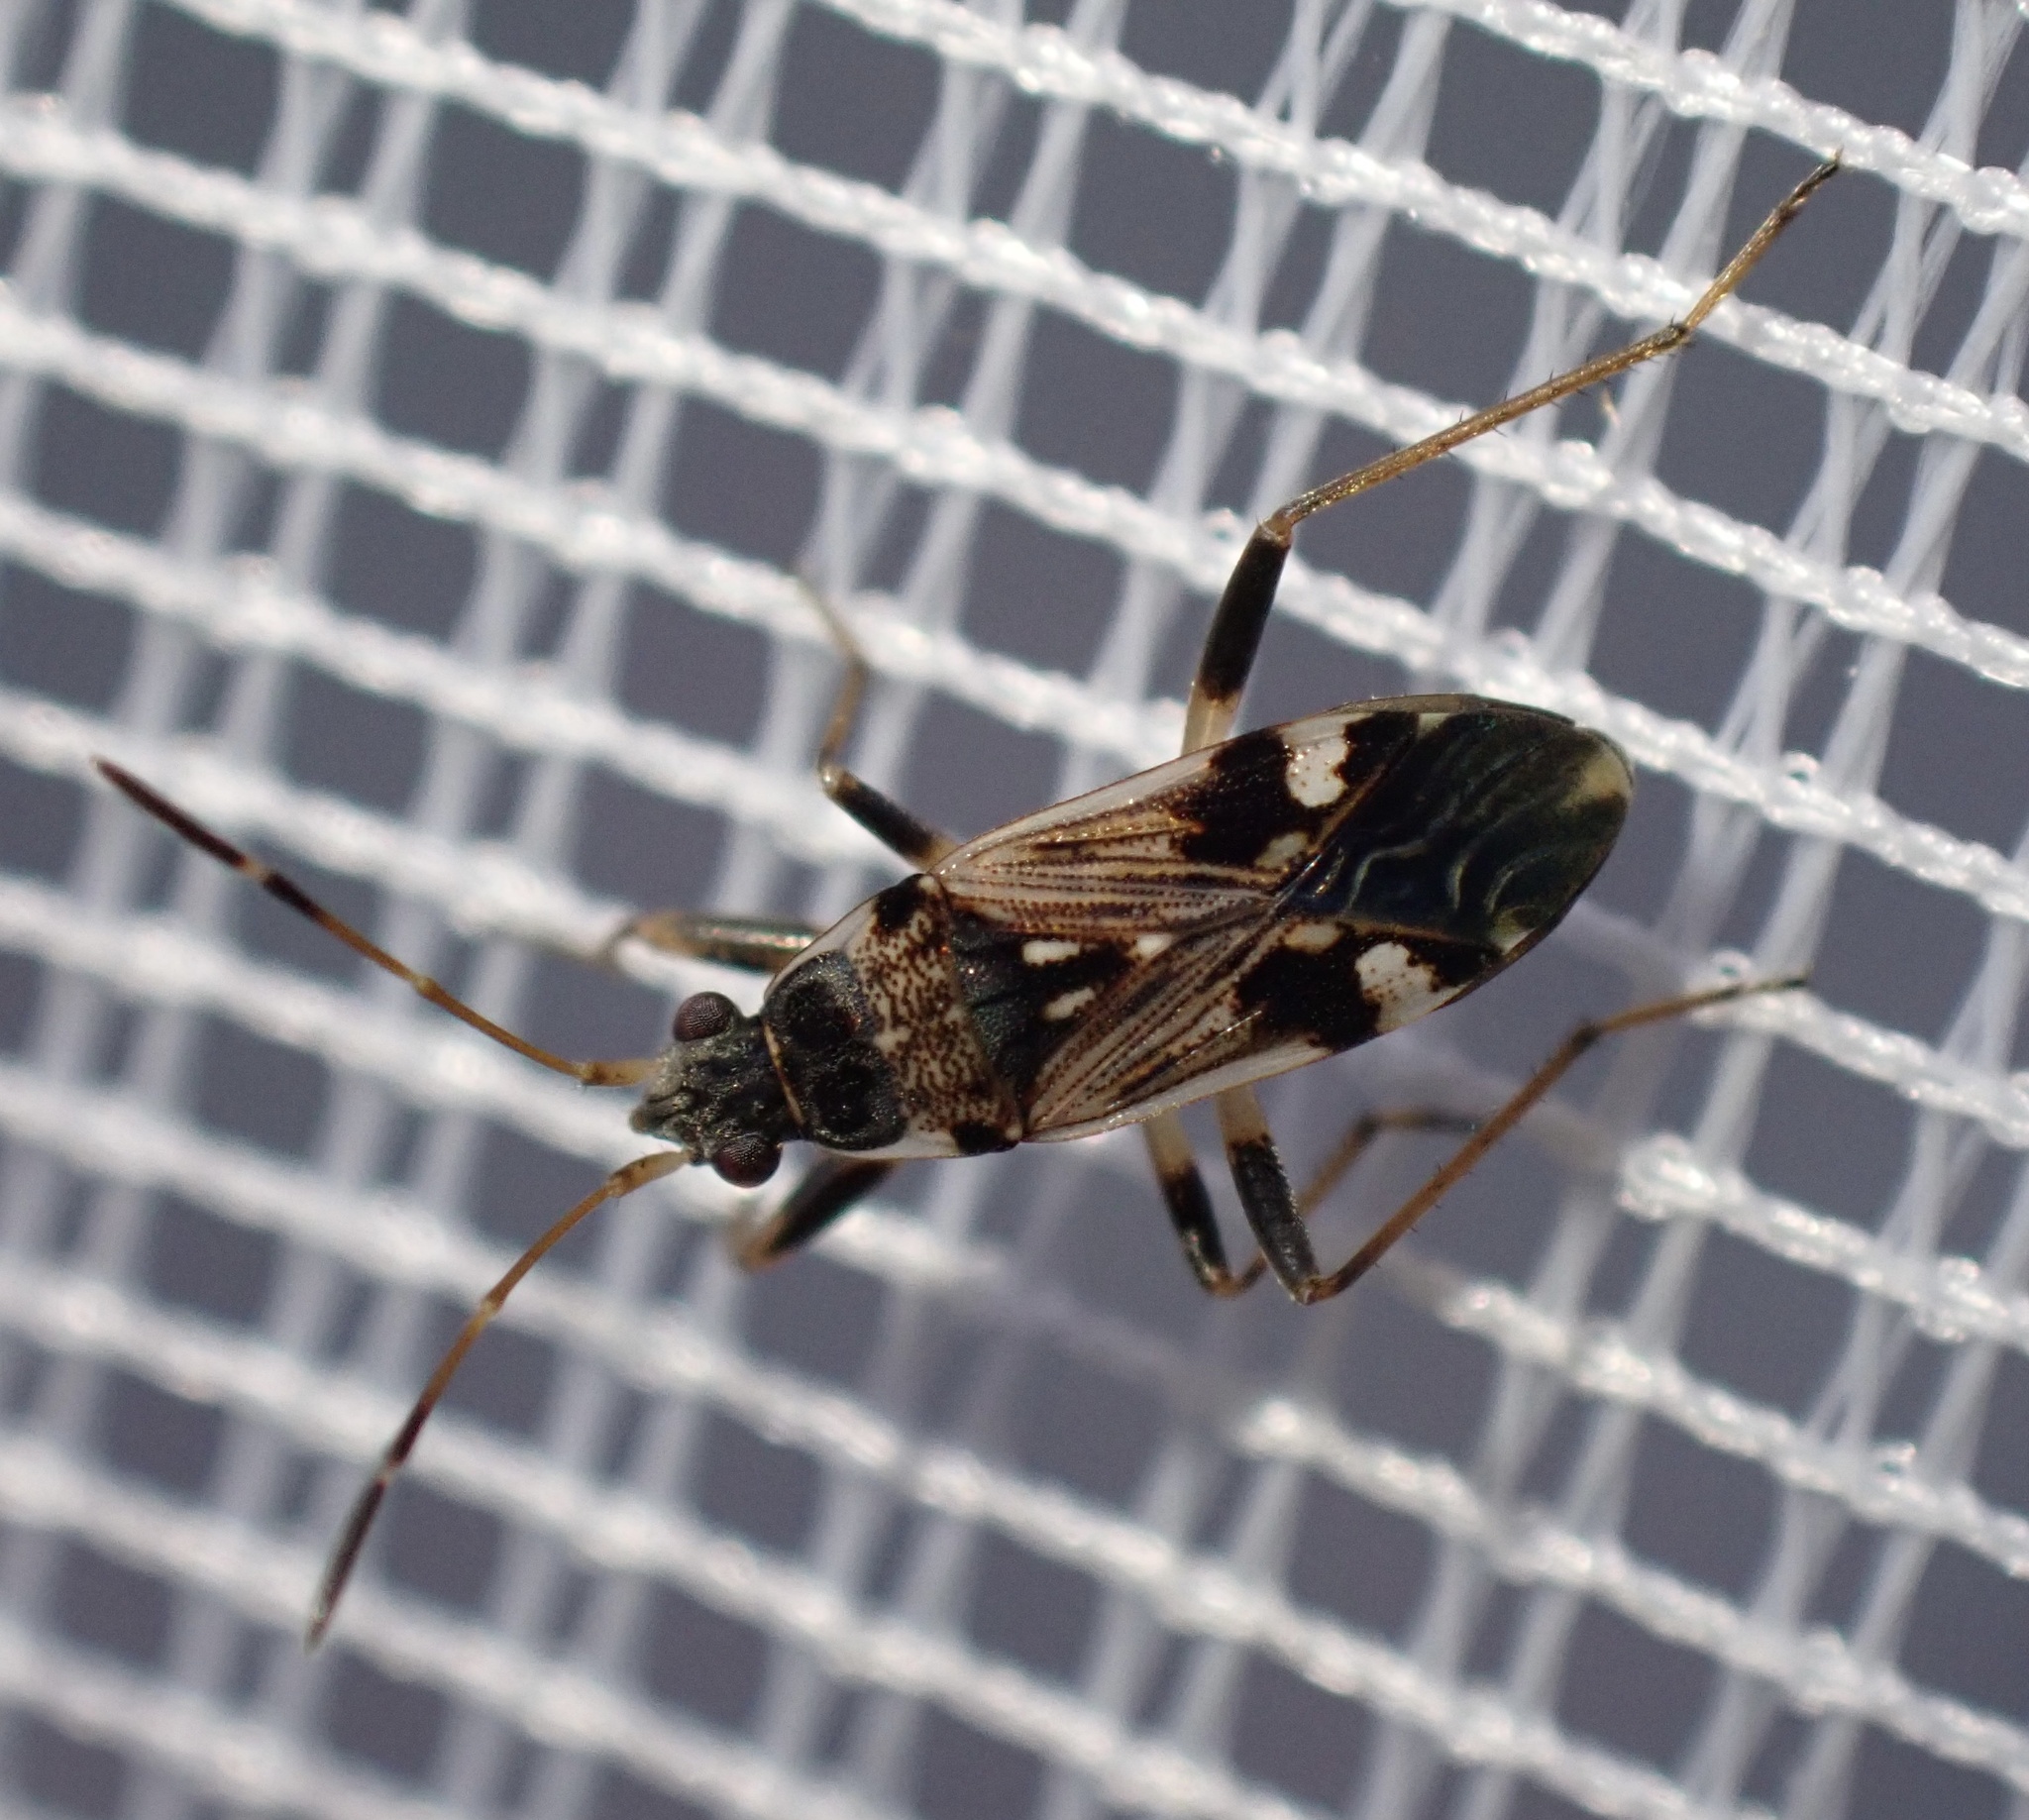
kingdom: Animalia
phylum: Arthropoda
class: Insecta
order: Hemiptera
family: Rhyparochromidae
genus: Beosus
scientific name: Beosus maritimus
